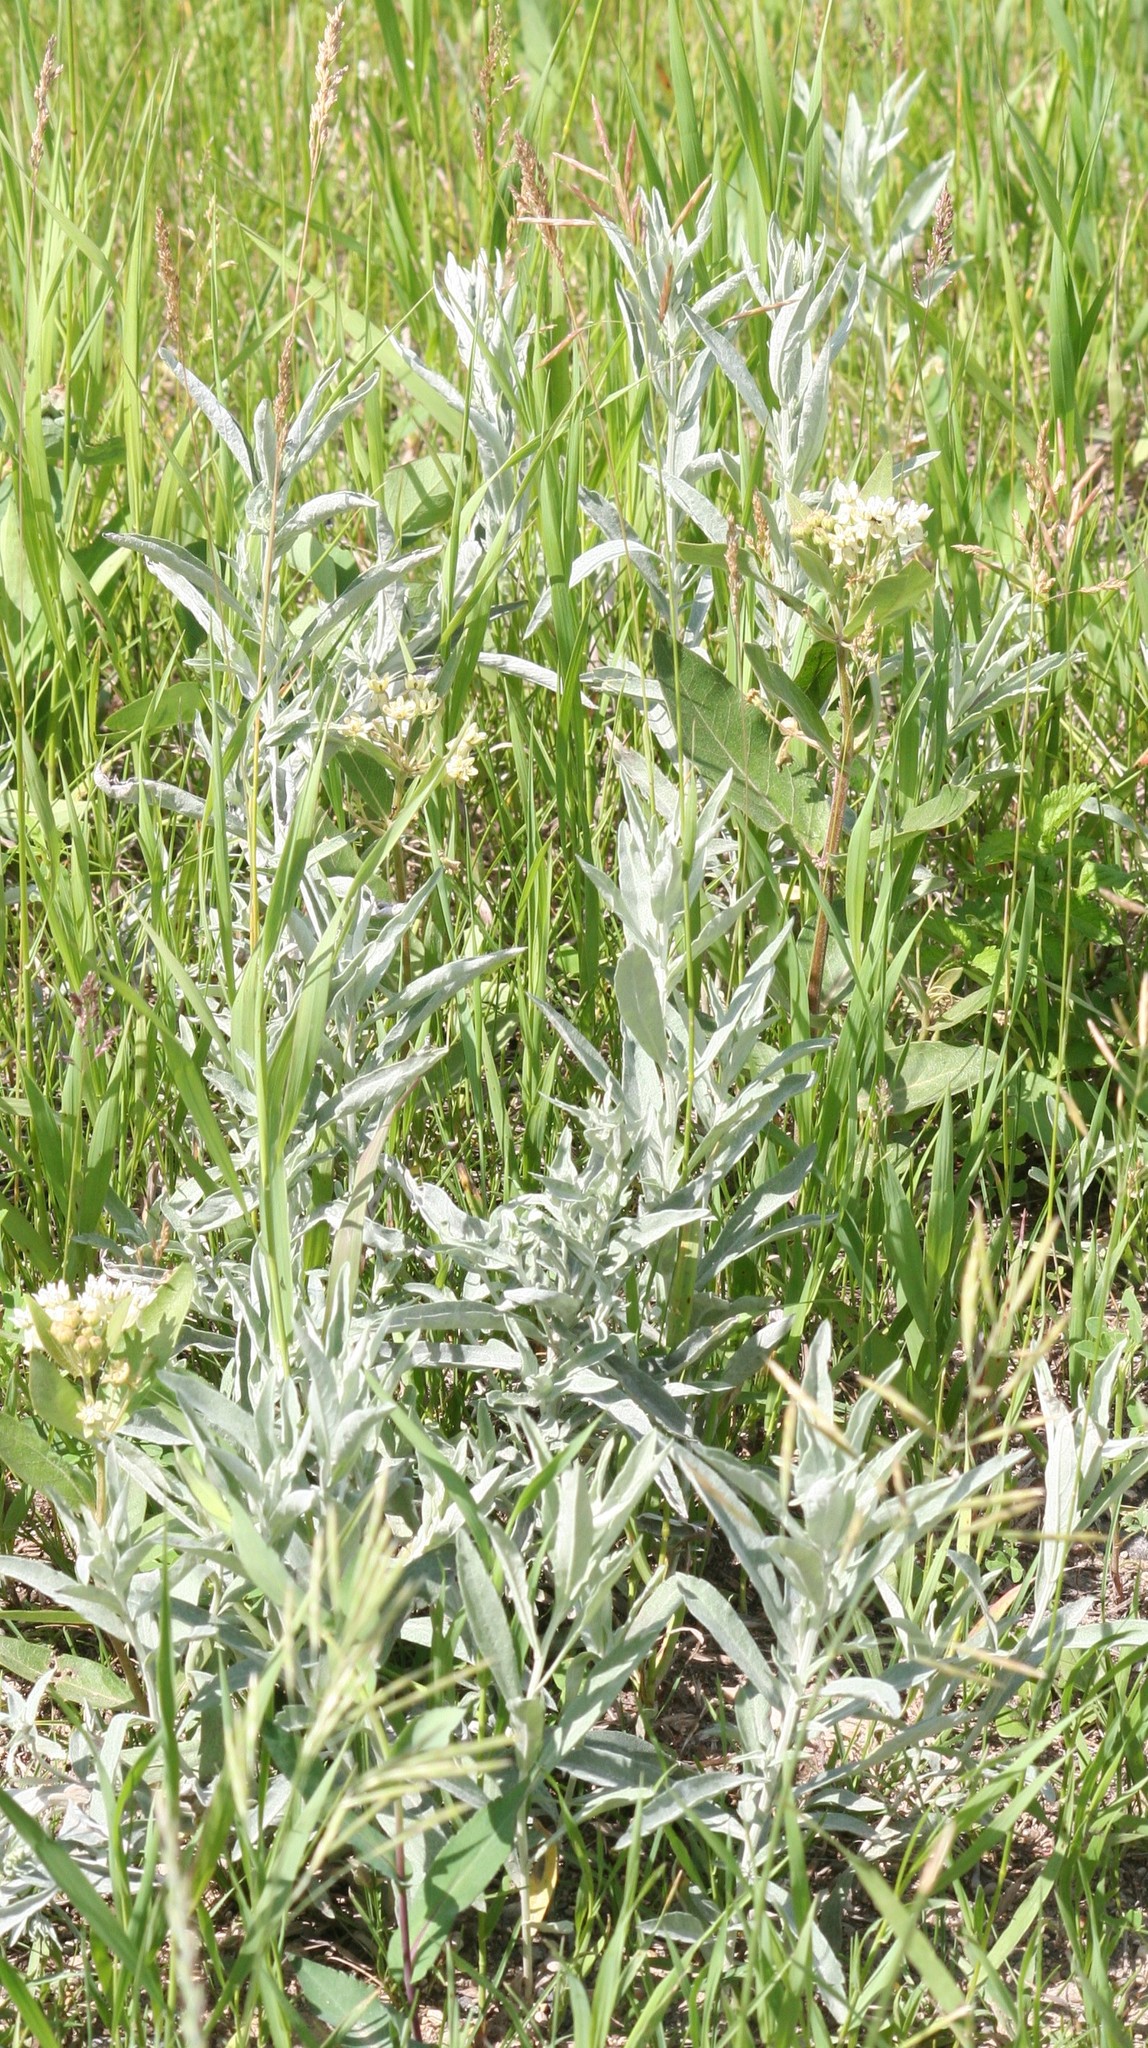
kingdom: Plantae
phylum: Tracheophyta
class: Magnoliopsida
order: Gentianales
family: Apocynaceae
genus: Asclepias
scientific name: Asclepias ovalifolia
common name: Dwarf milkweed
